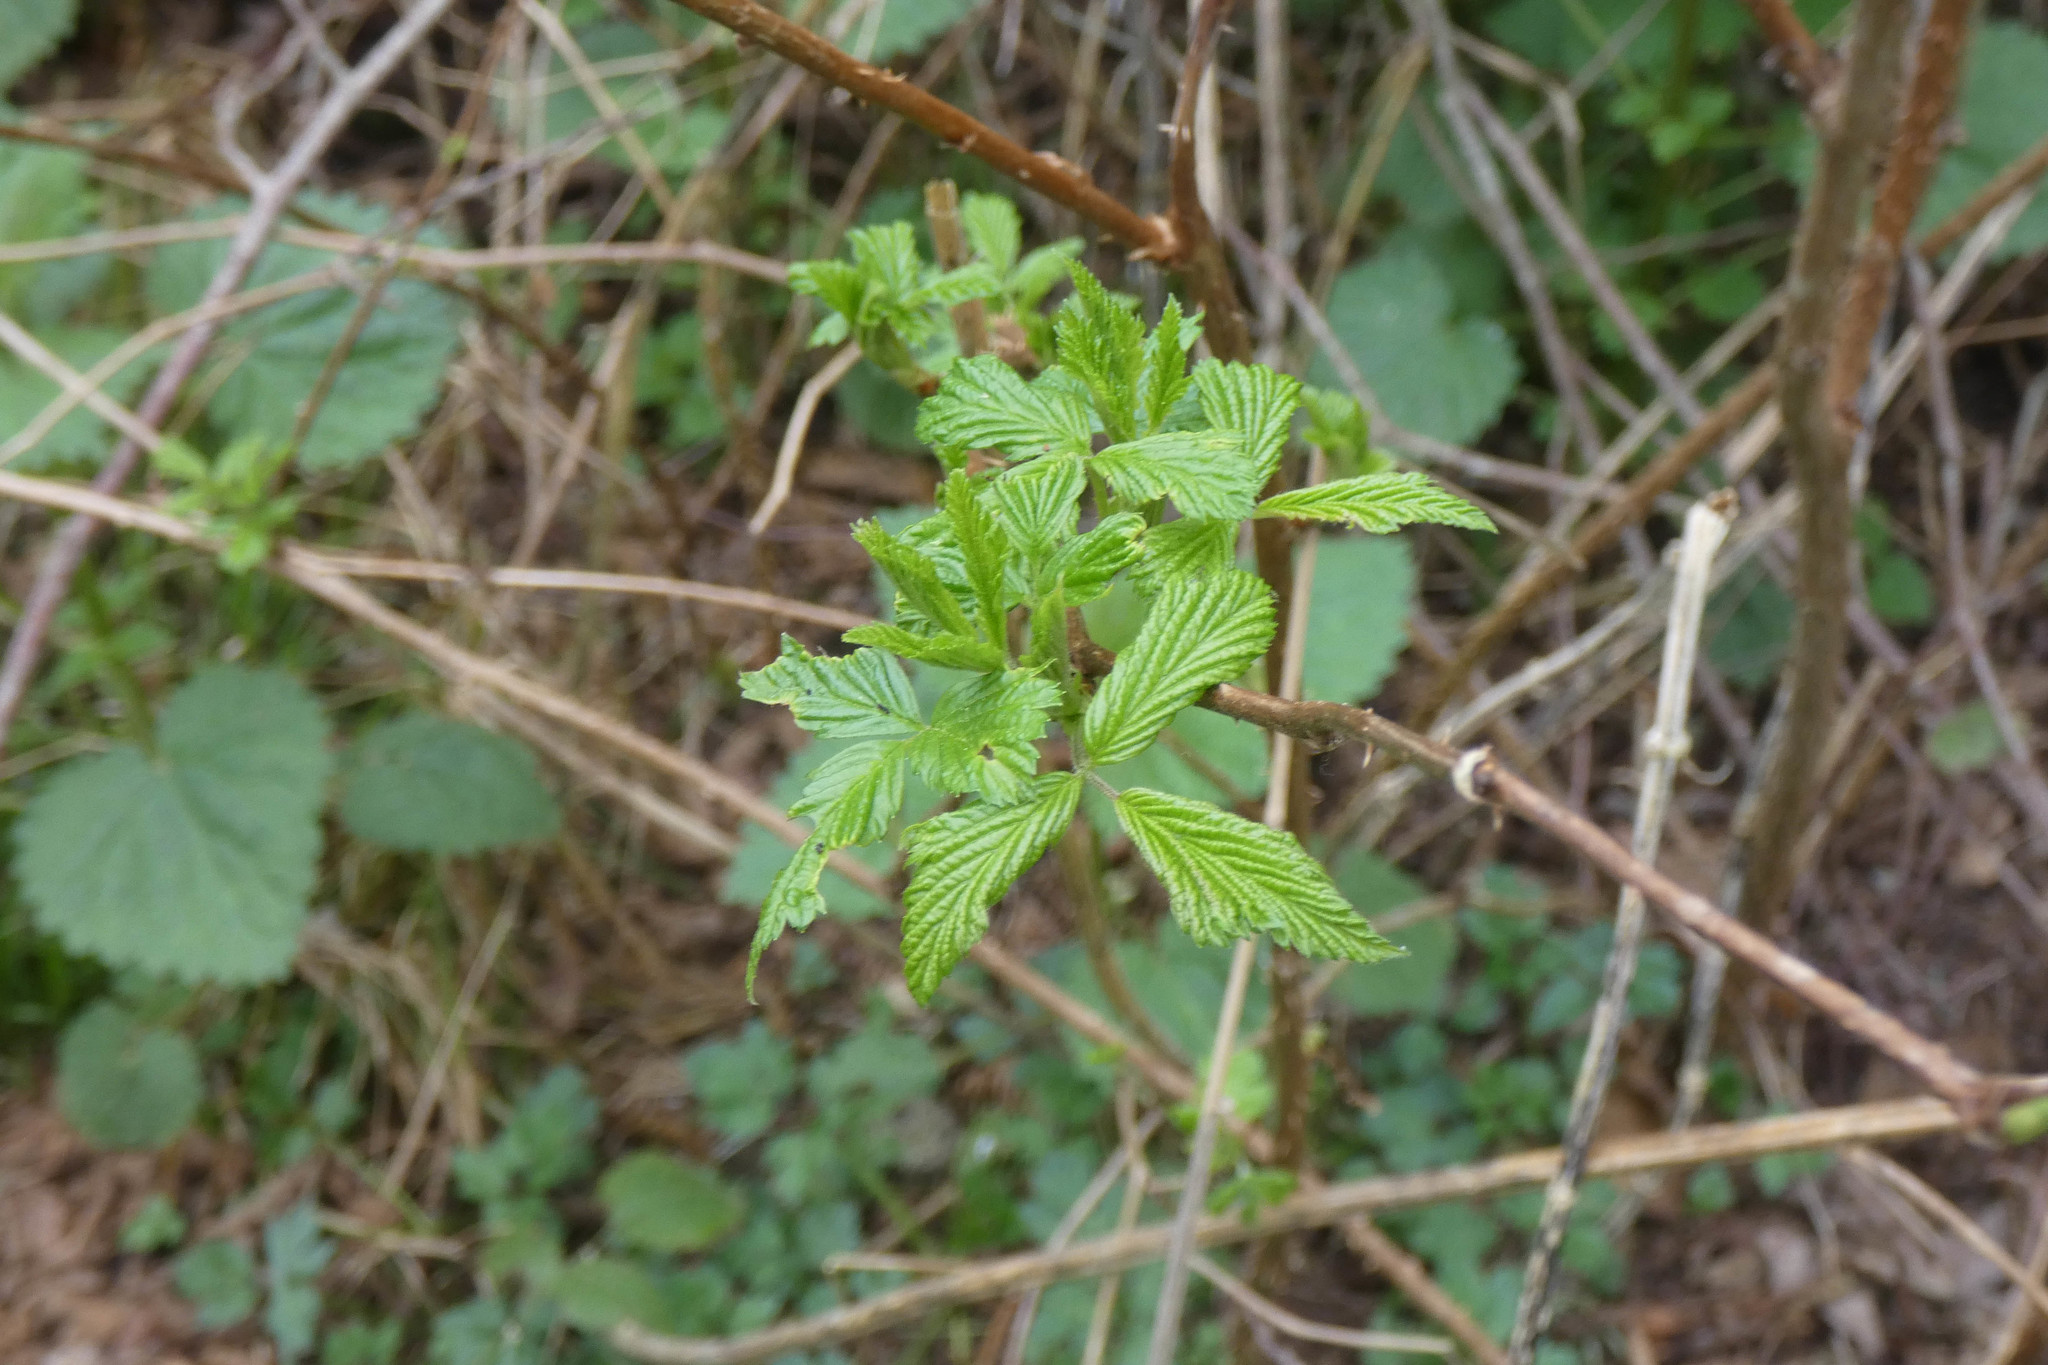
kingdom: Plantae
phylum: Tracheophyta
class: Magnoliopsida
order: Rosales
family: Rosaceae
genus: Rubus
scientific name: Rubus spectabilis
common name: Salmonberry
